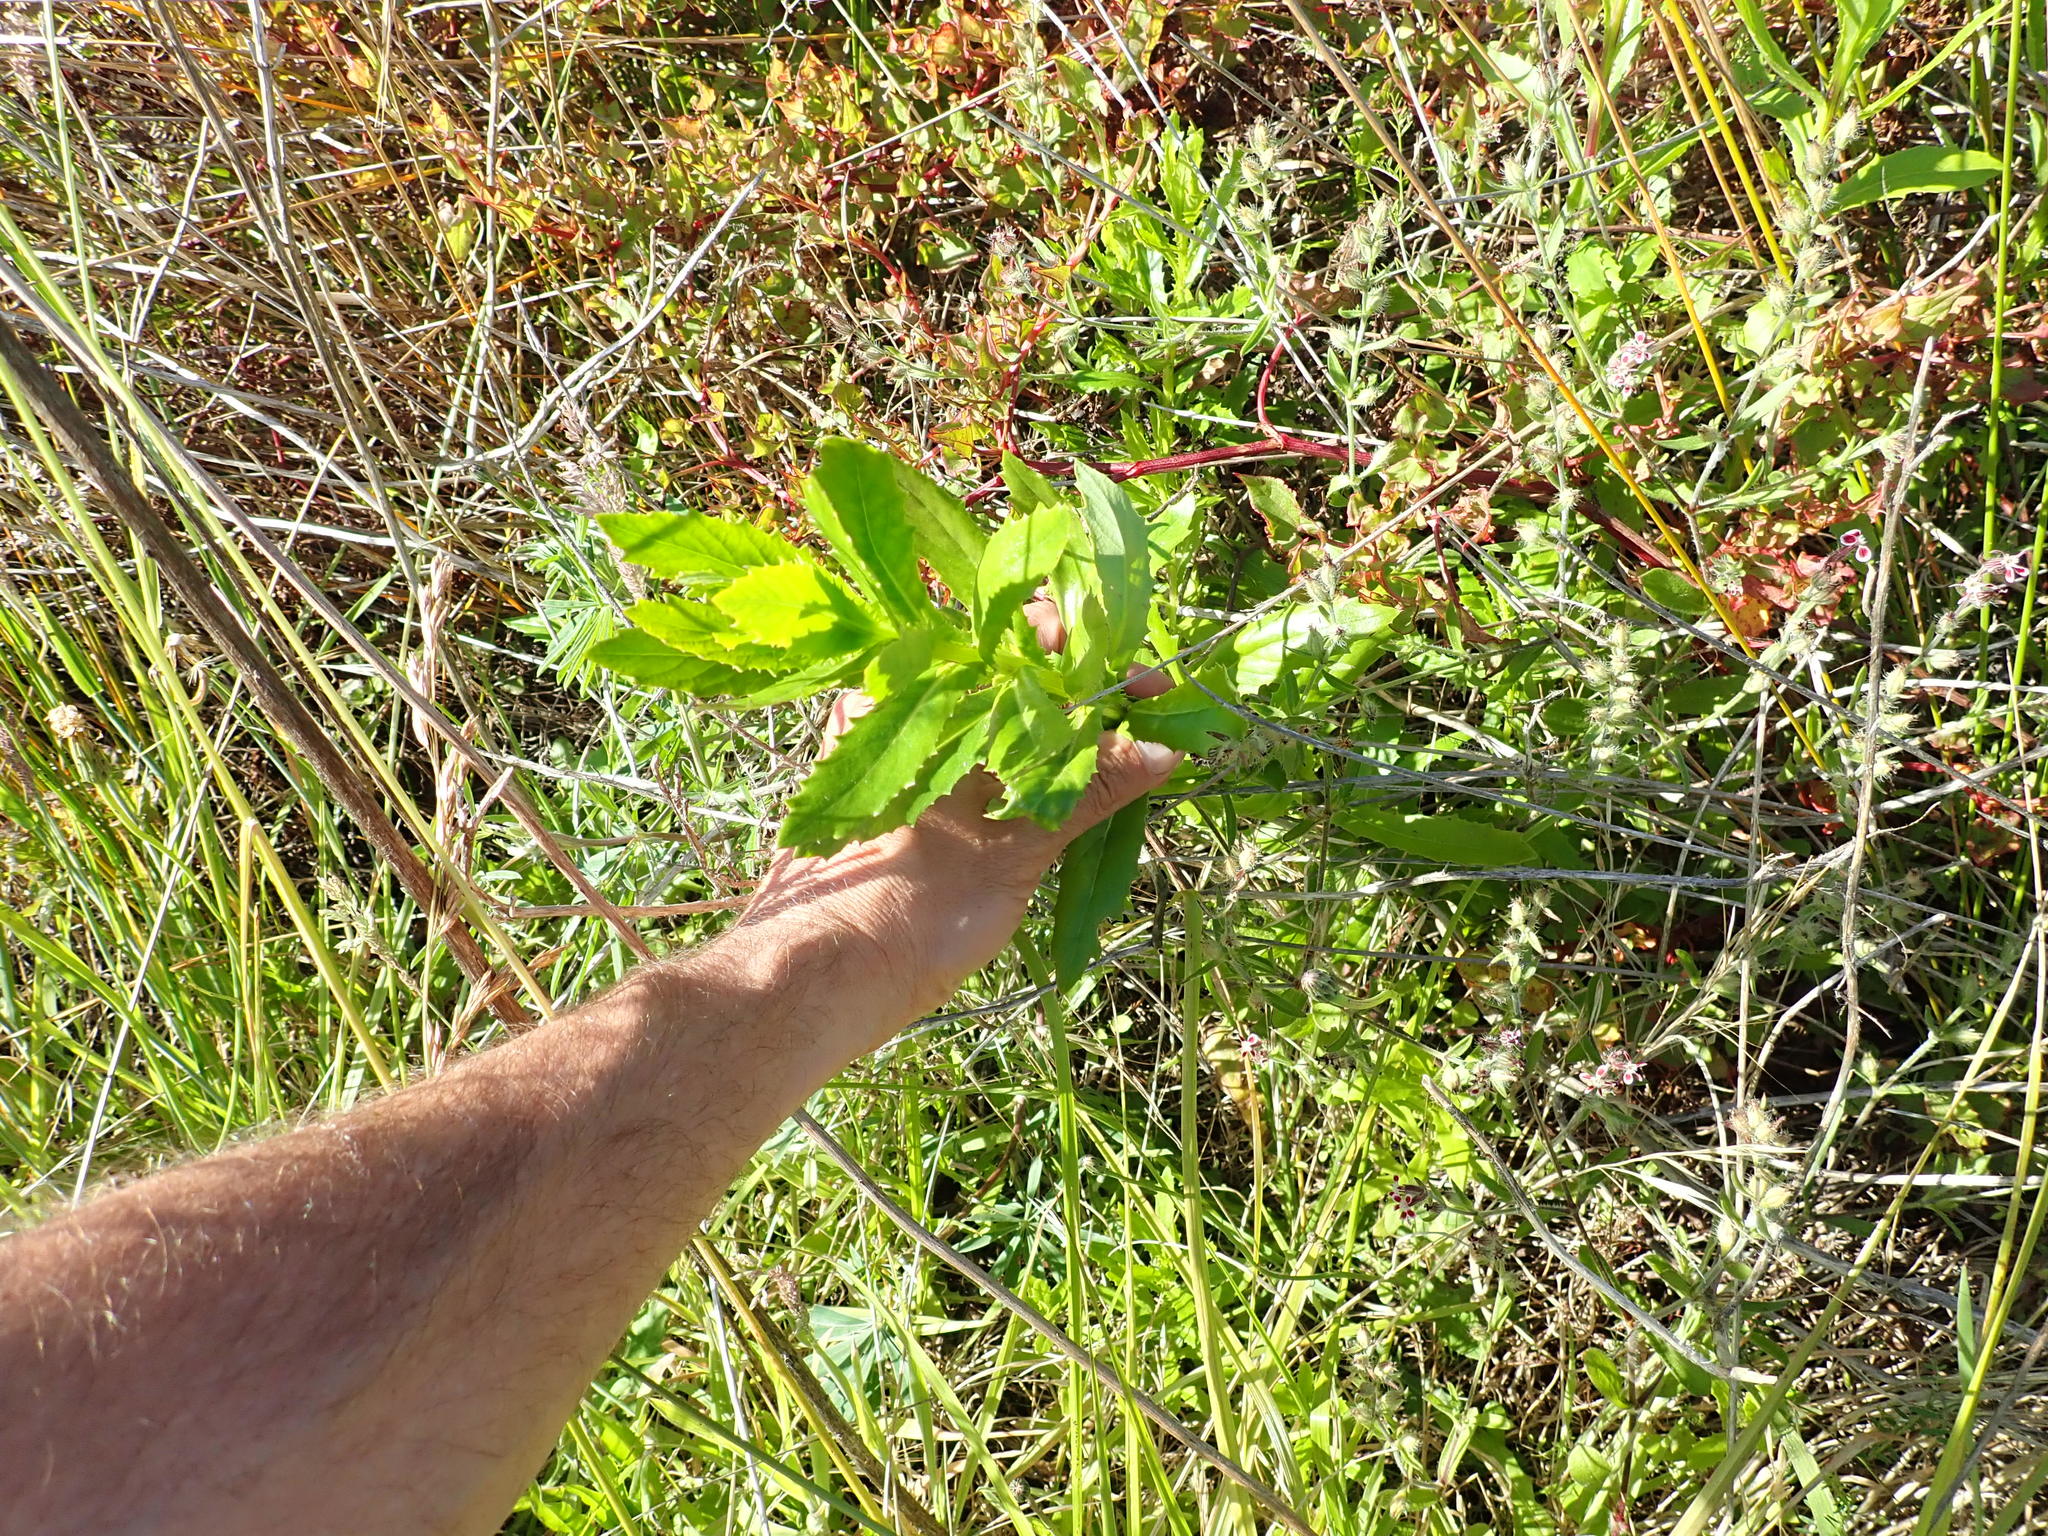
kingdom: Plantae
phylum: Tracheophyta
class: Magnoliopsida
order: Asterales
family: Asteraceae
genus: Senecio
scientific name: Senecio glastifolius
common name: Woad-leaved ragwort
